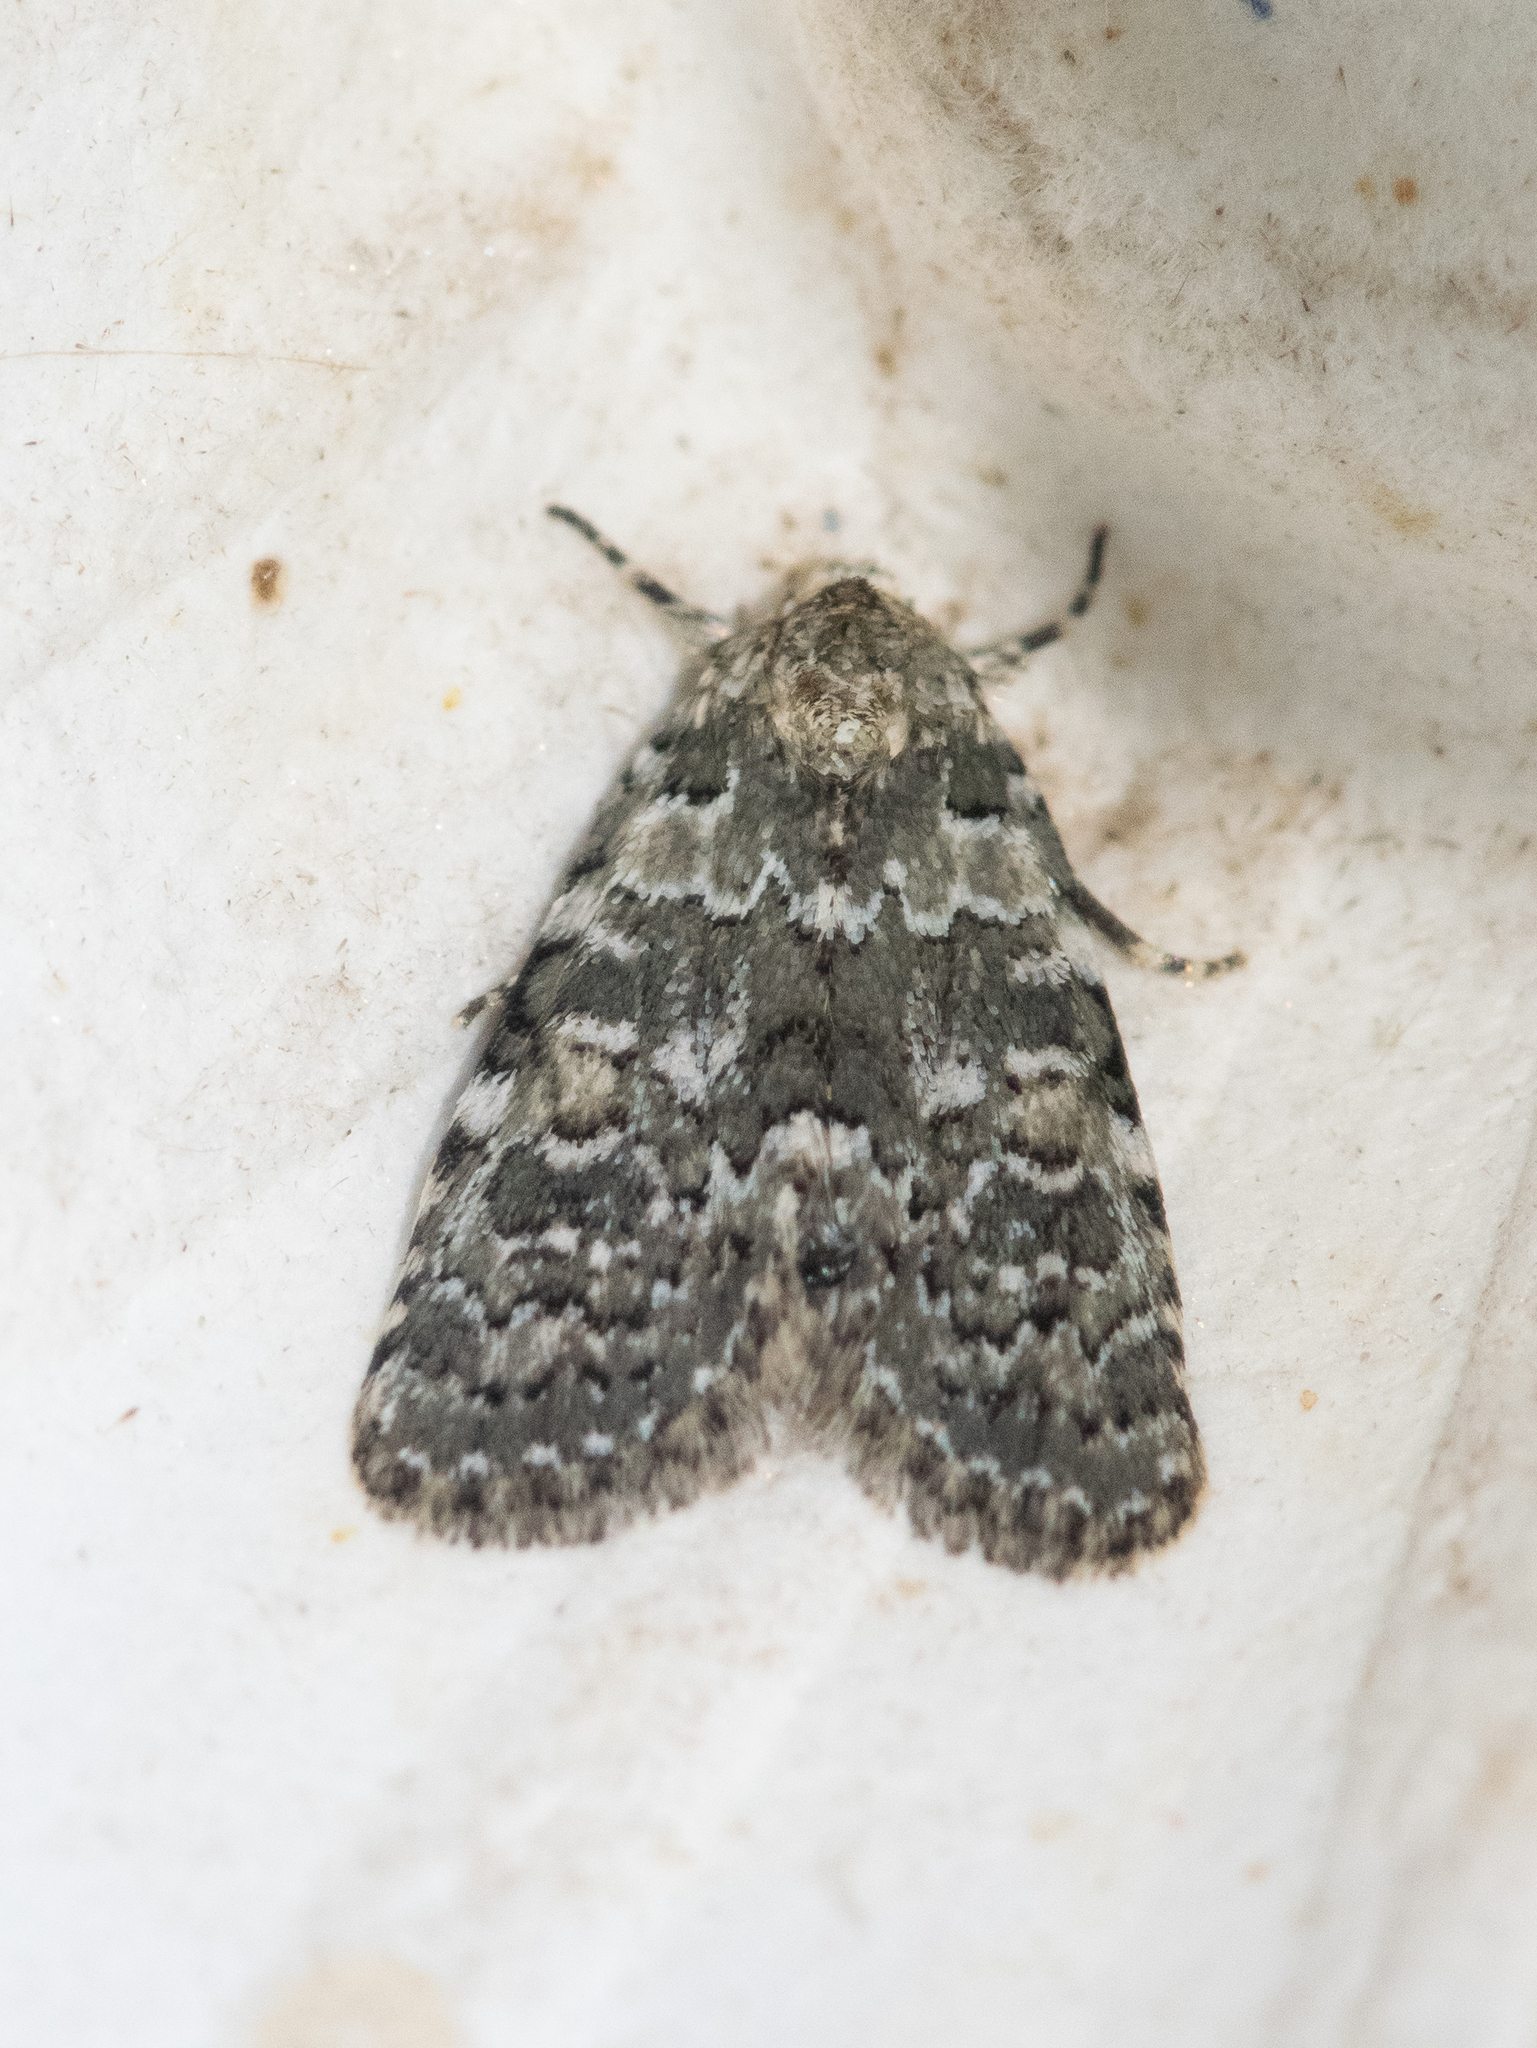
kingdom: Animalia
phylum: Arthropoda
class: Insecta
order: Lepidoptera
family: Noctuidae
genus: Bryophila
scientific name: Bryophila domestica
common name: Marbled beauty
